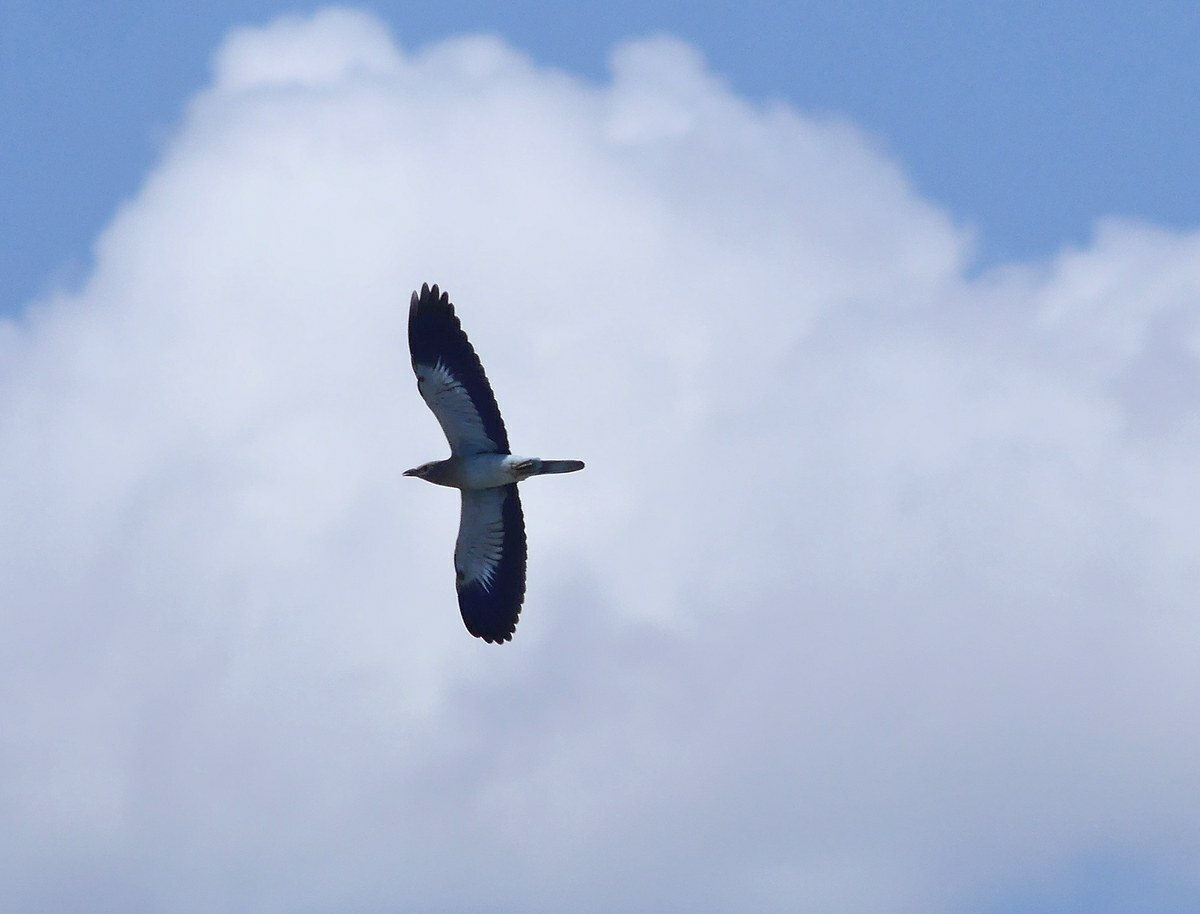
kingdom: Animalia
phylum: Chordata
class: Aves
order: Coraciiformes
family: Coraciidae
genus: Coracias
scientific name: Coracias garrulus
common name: European roller
